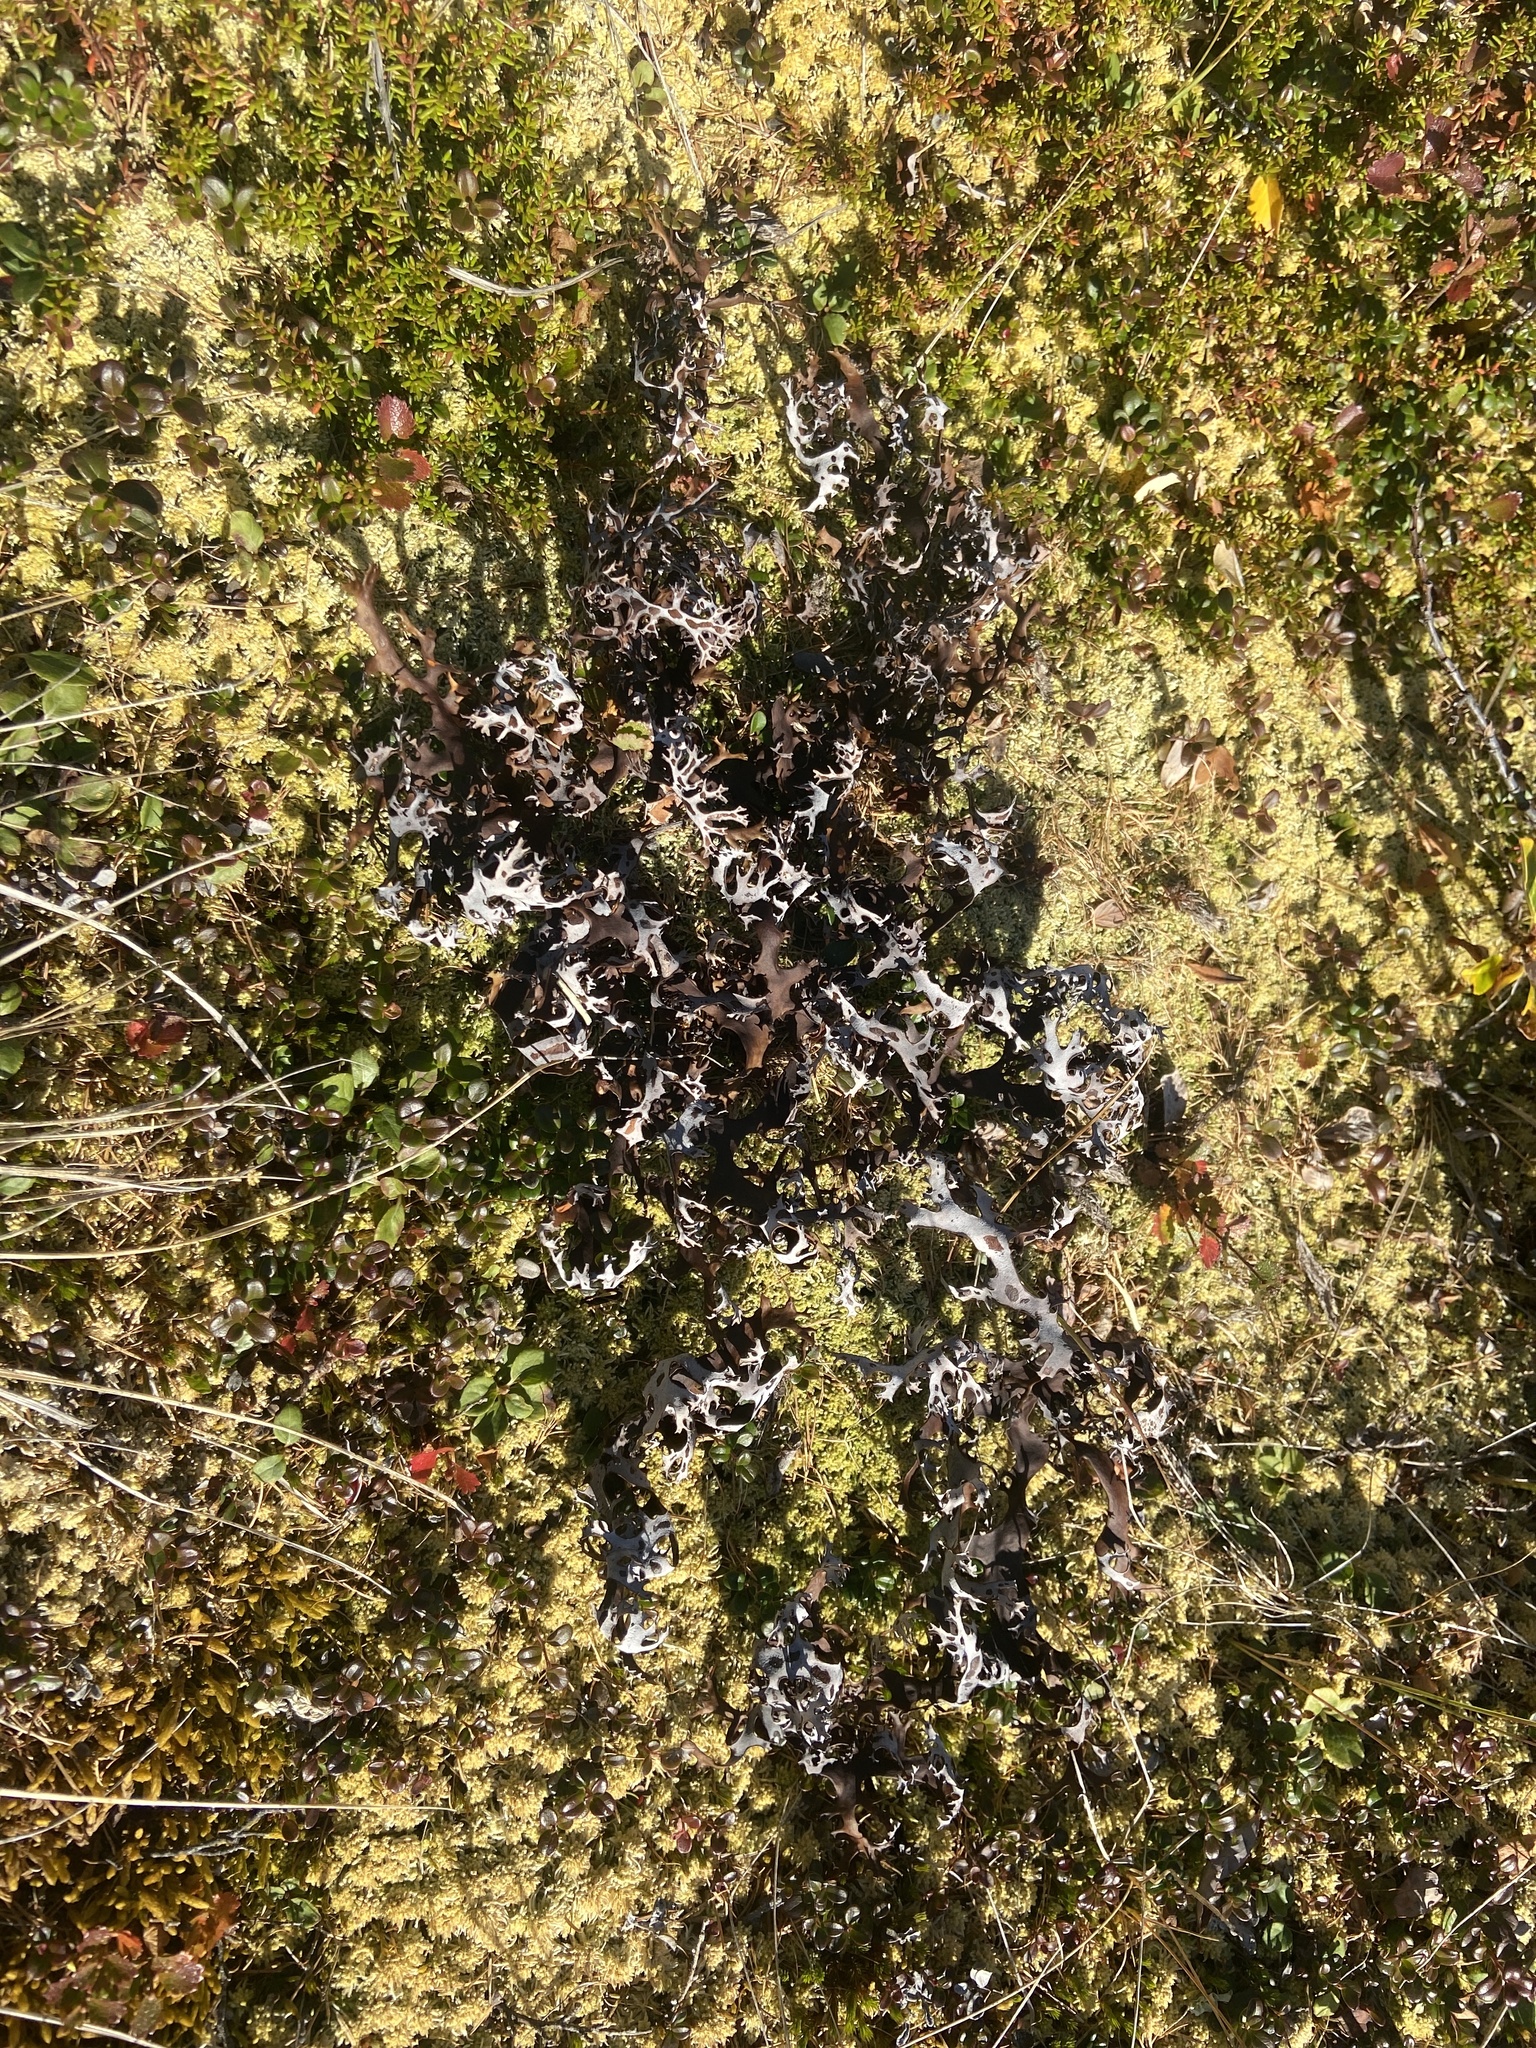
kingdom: Fungi
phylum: Ascomycota
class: Lecanoromycetes
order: Lecanorales
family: Parmeliaceae
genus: Nephromopsis
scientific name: Nephromopsis richardsonii
